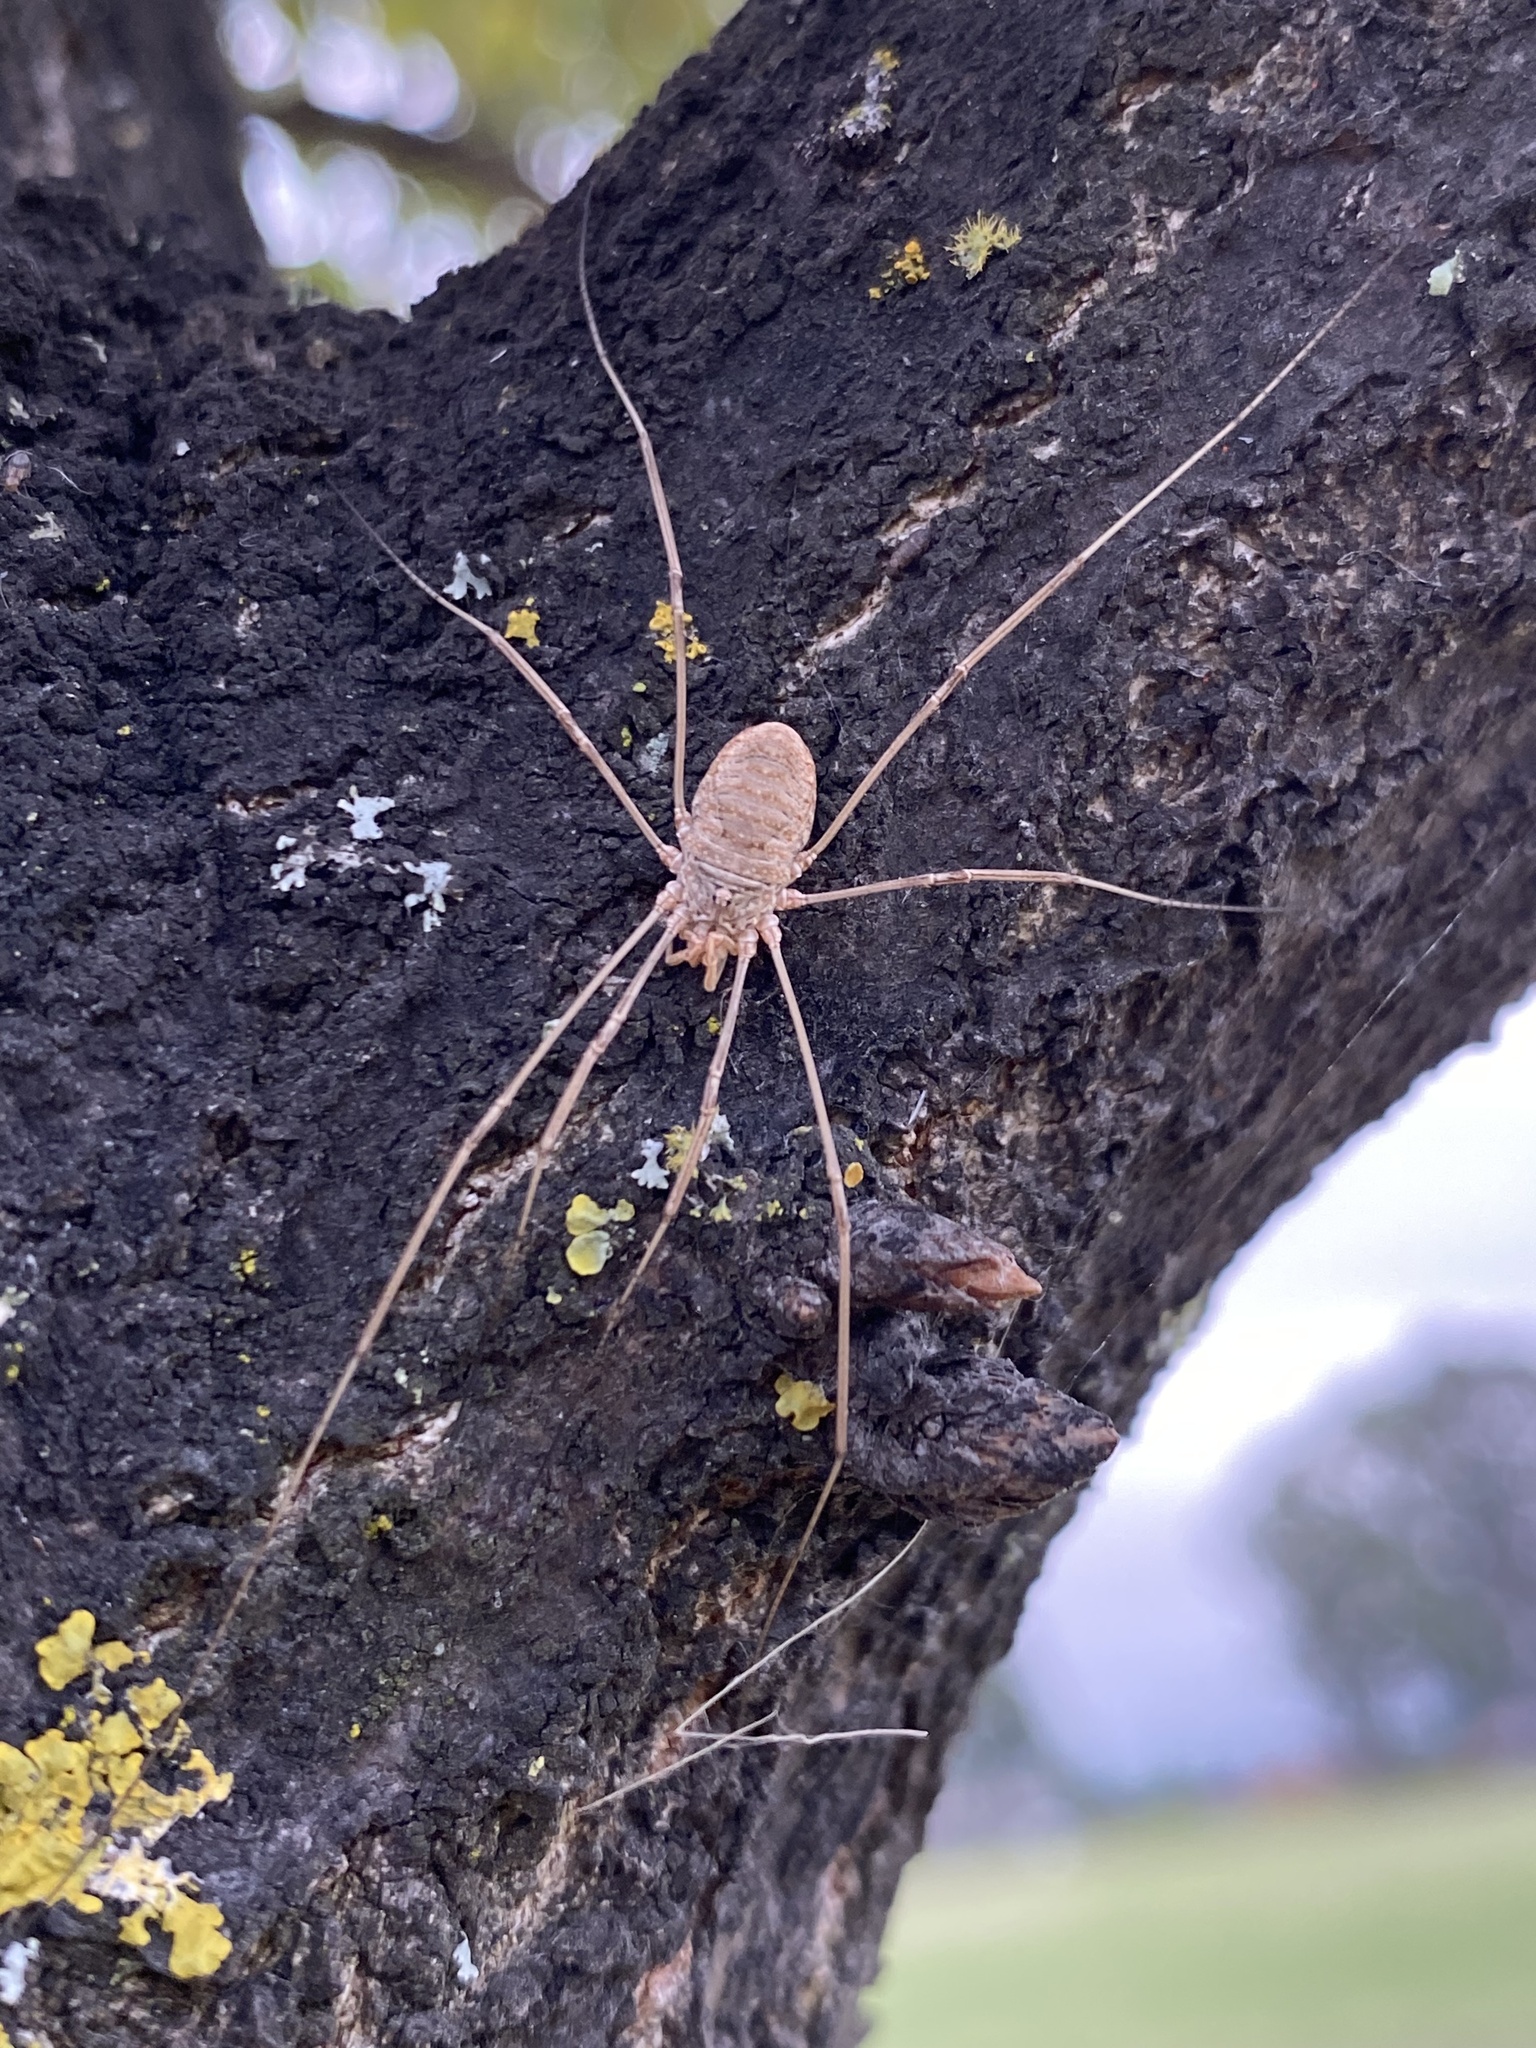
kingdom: Animalia
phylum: Arthropoda
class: Arachnida
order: Opiliones
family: Phalangiidae
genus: Phalangium
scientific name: Phalangium opilio
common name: Daddy longleg
